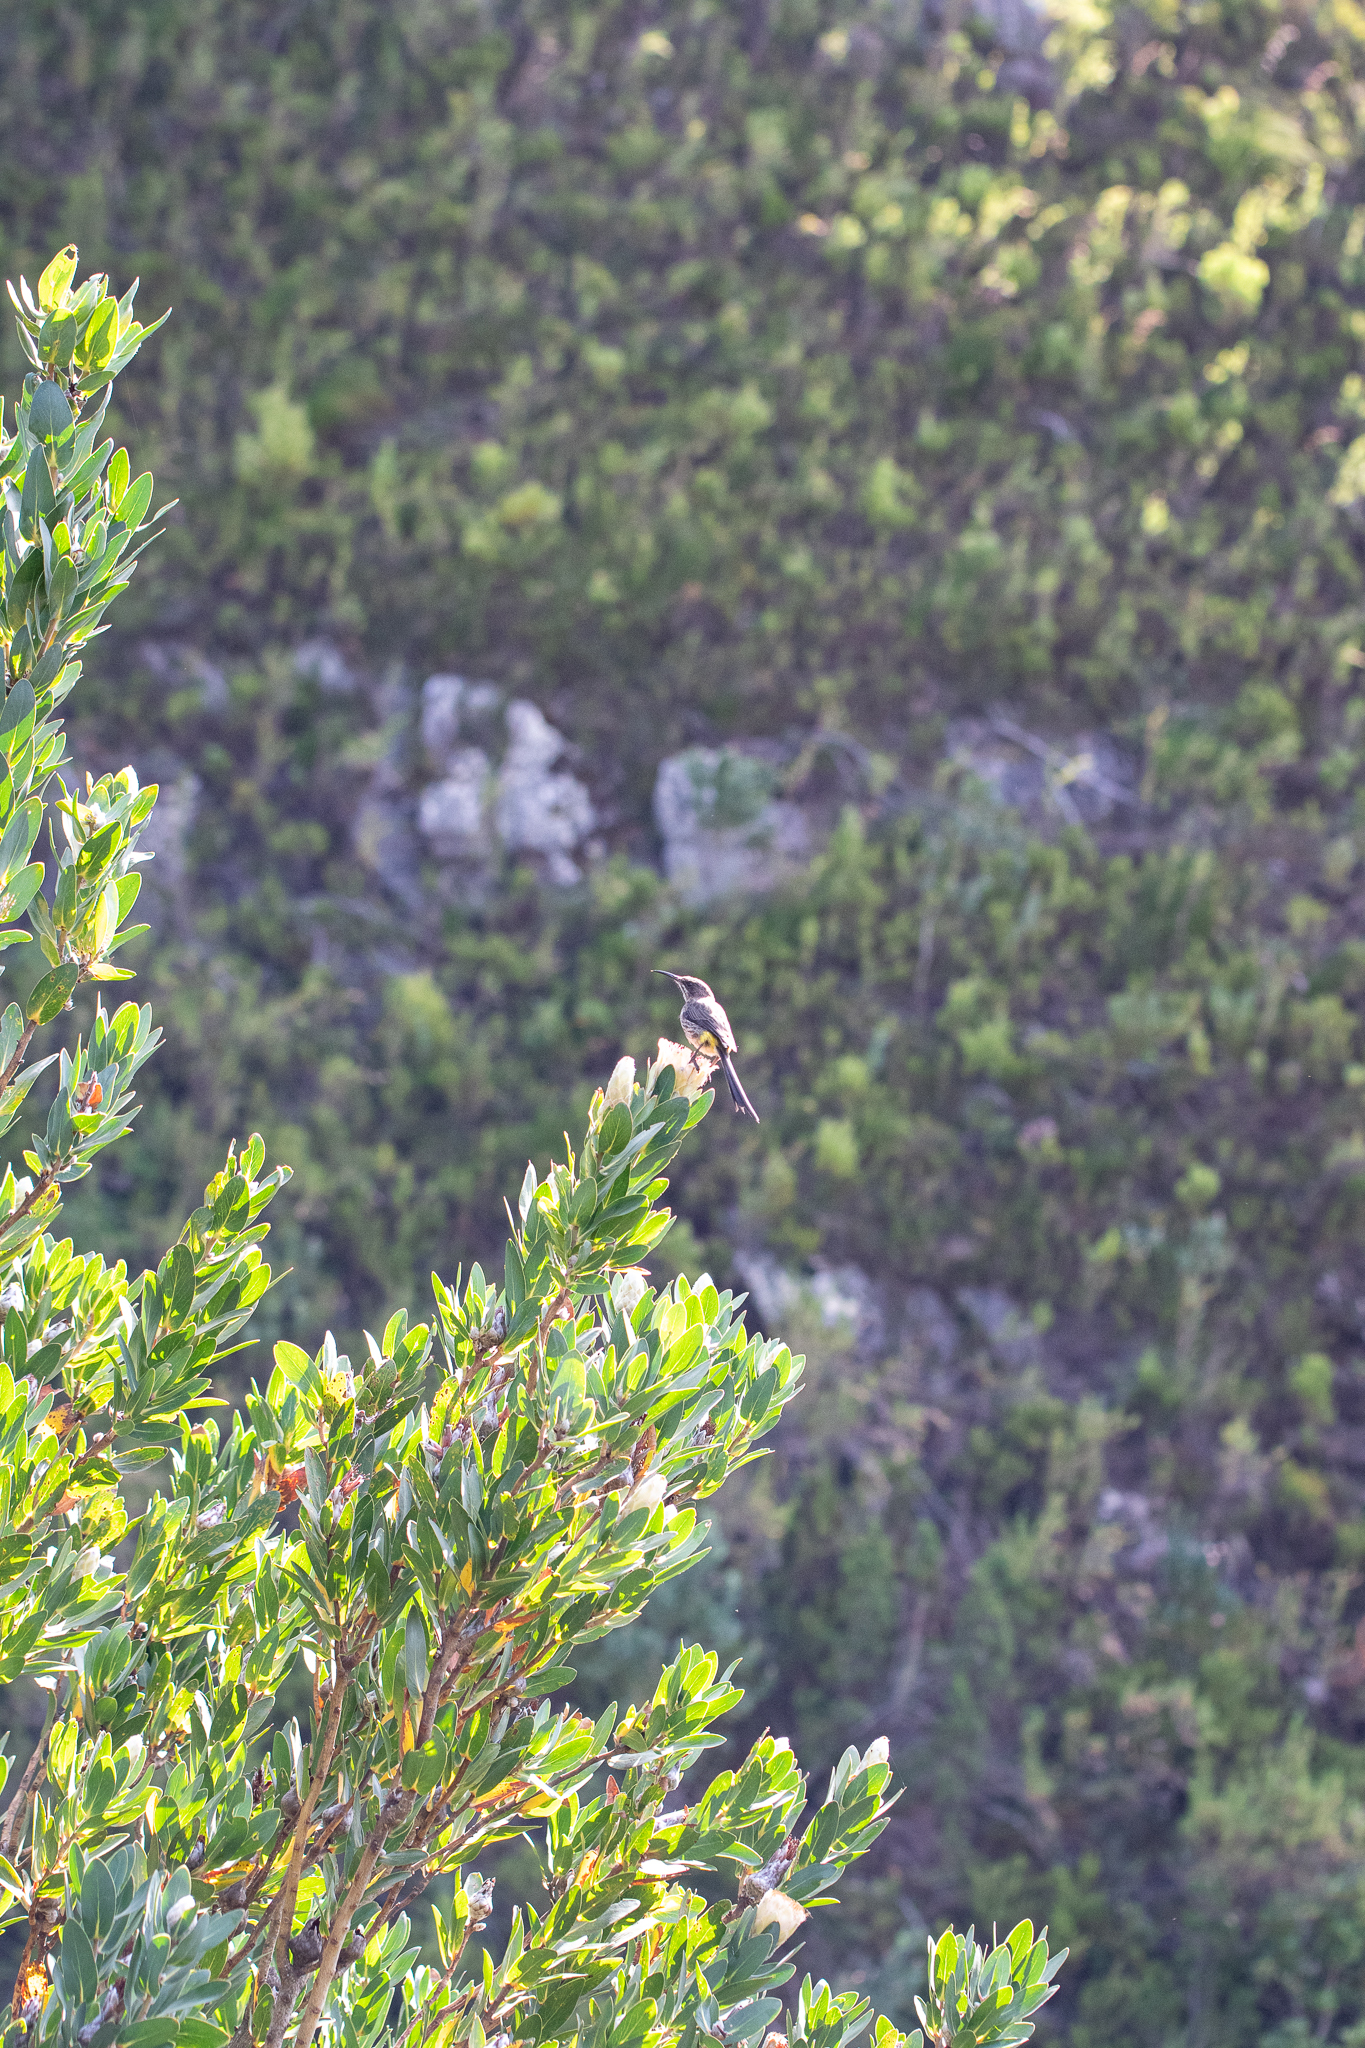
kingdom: Animalia
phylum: Chordata
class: Aves
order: Passeriformes
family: Promeropidae
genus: Promerops
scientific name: Promerops cafer
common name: Cape sugarbird
